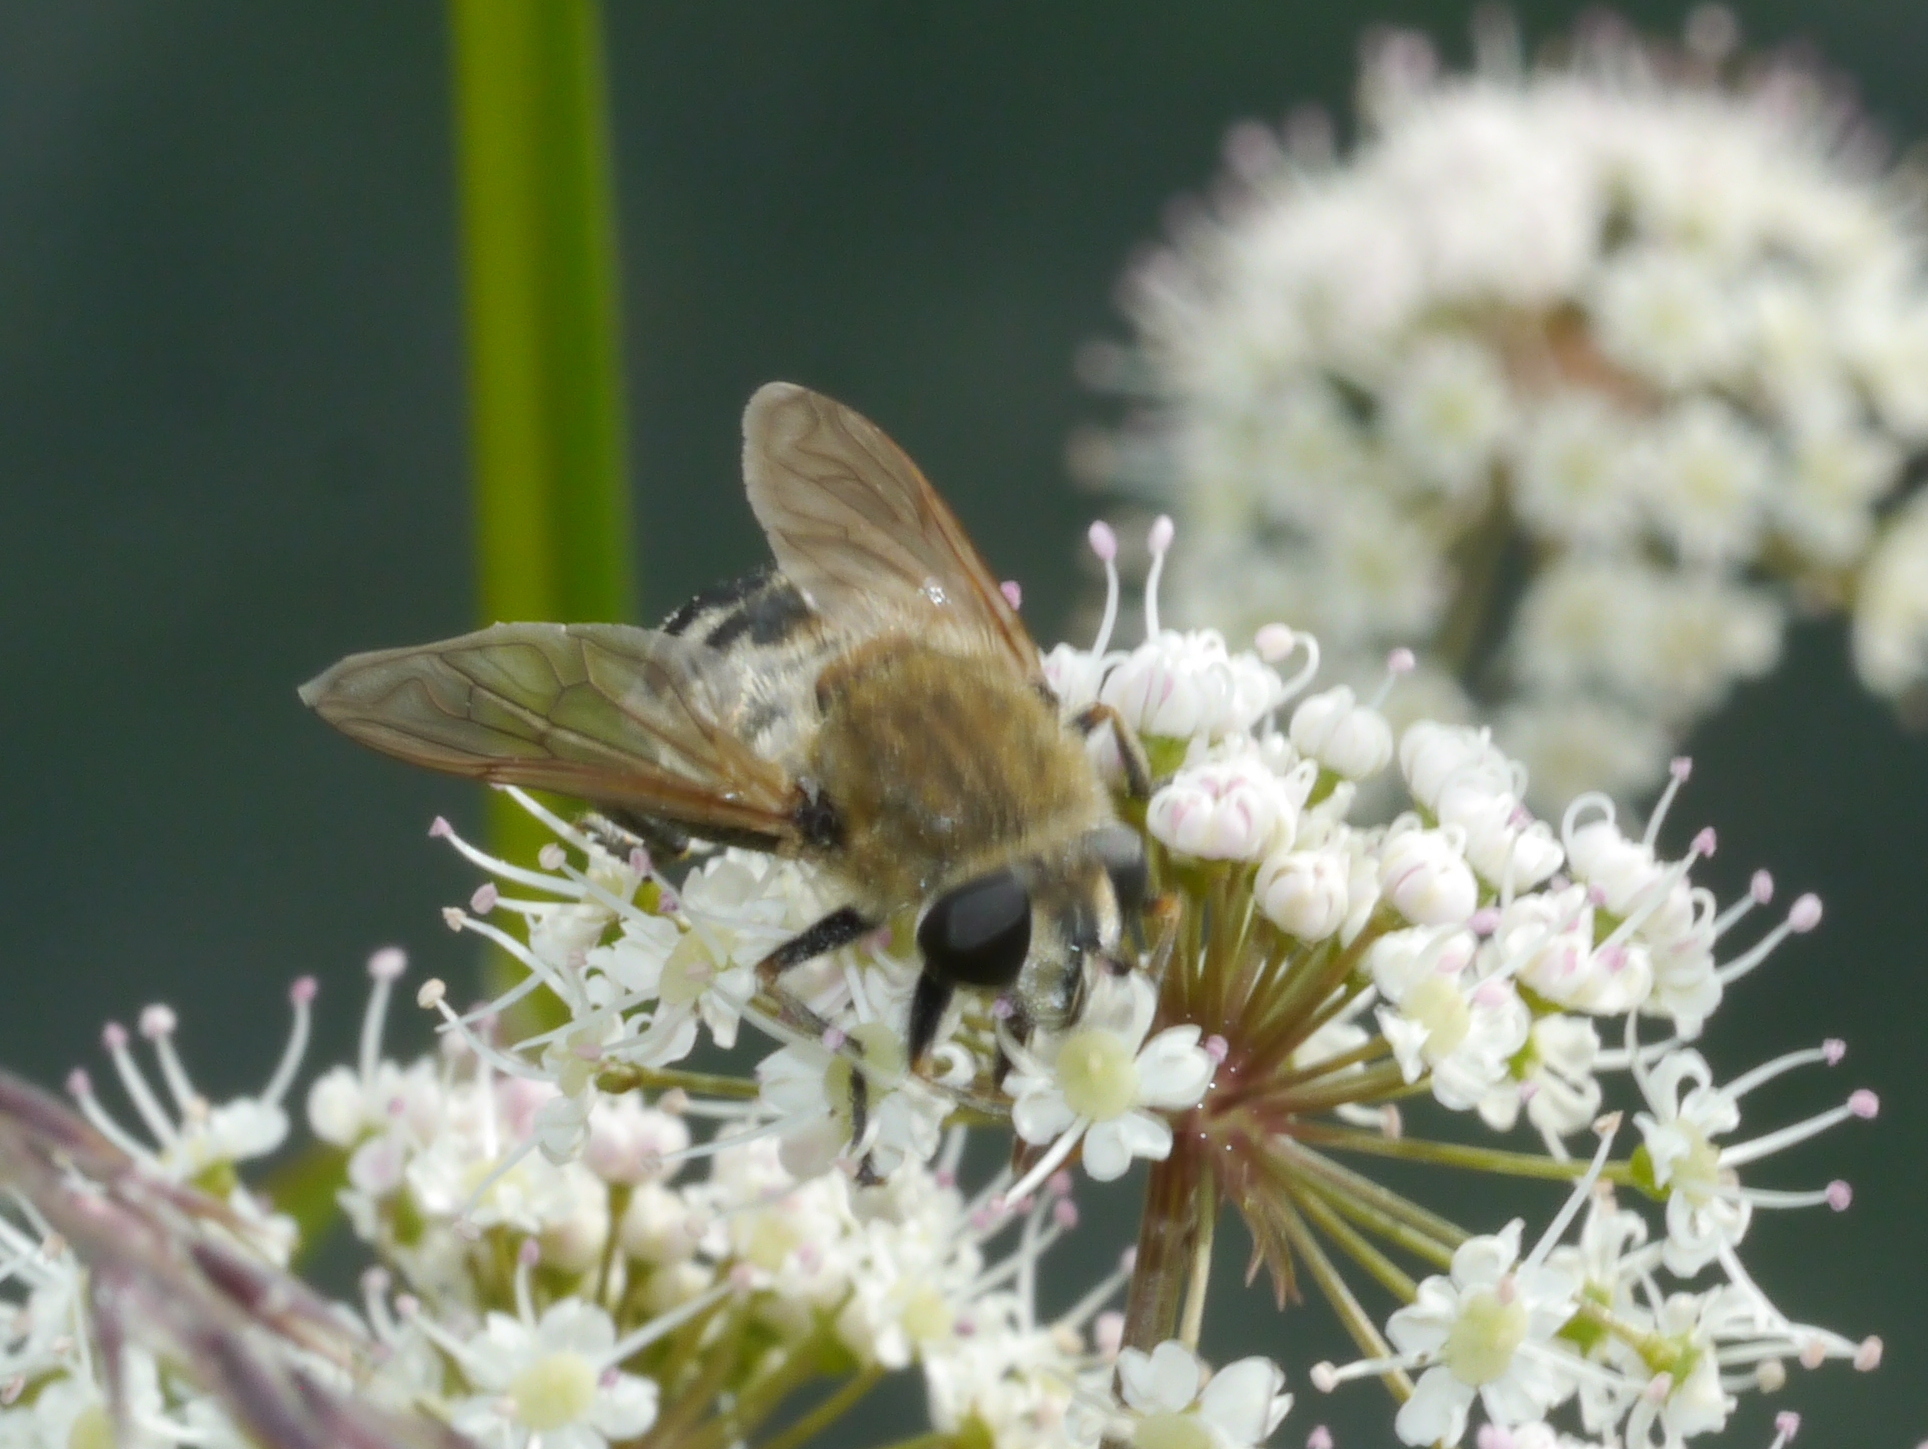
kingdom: Animalia
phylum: Arthropoda
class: Insecta
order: Diptera
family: Syrphidae
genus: Polydontomyia
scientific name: Polydontomyia curvipes
